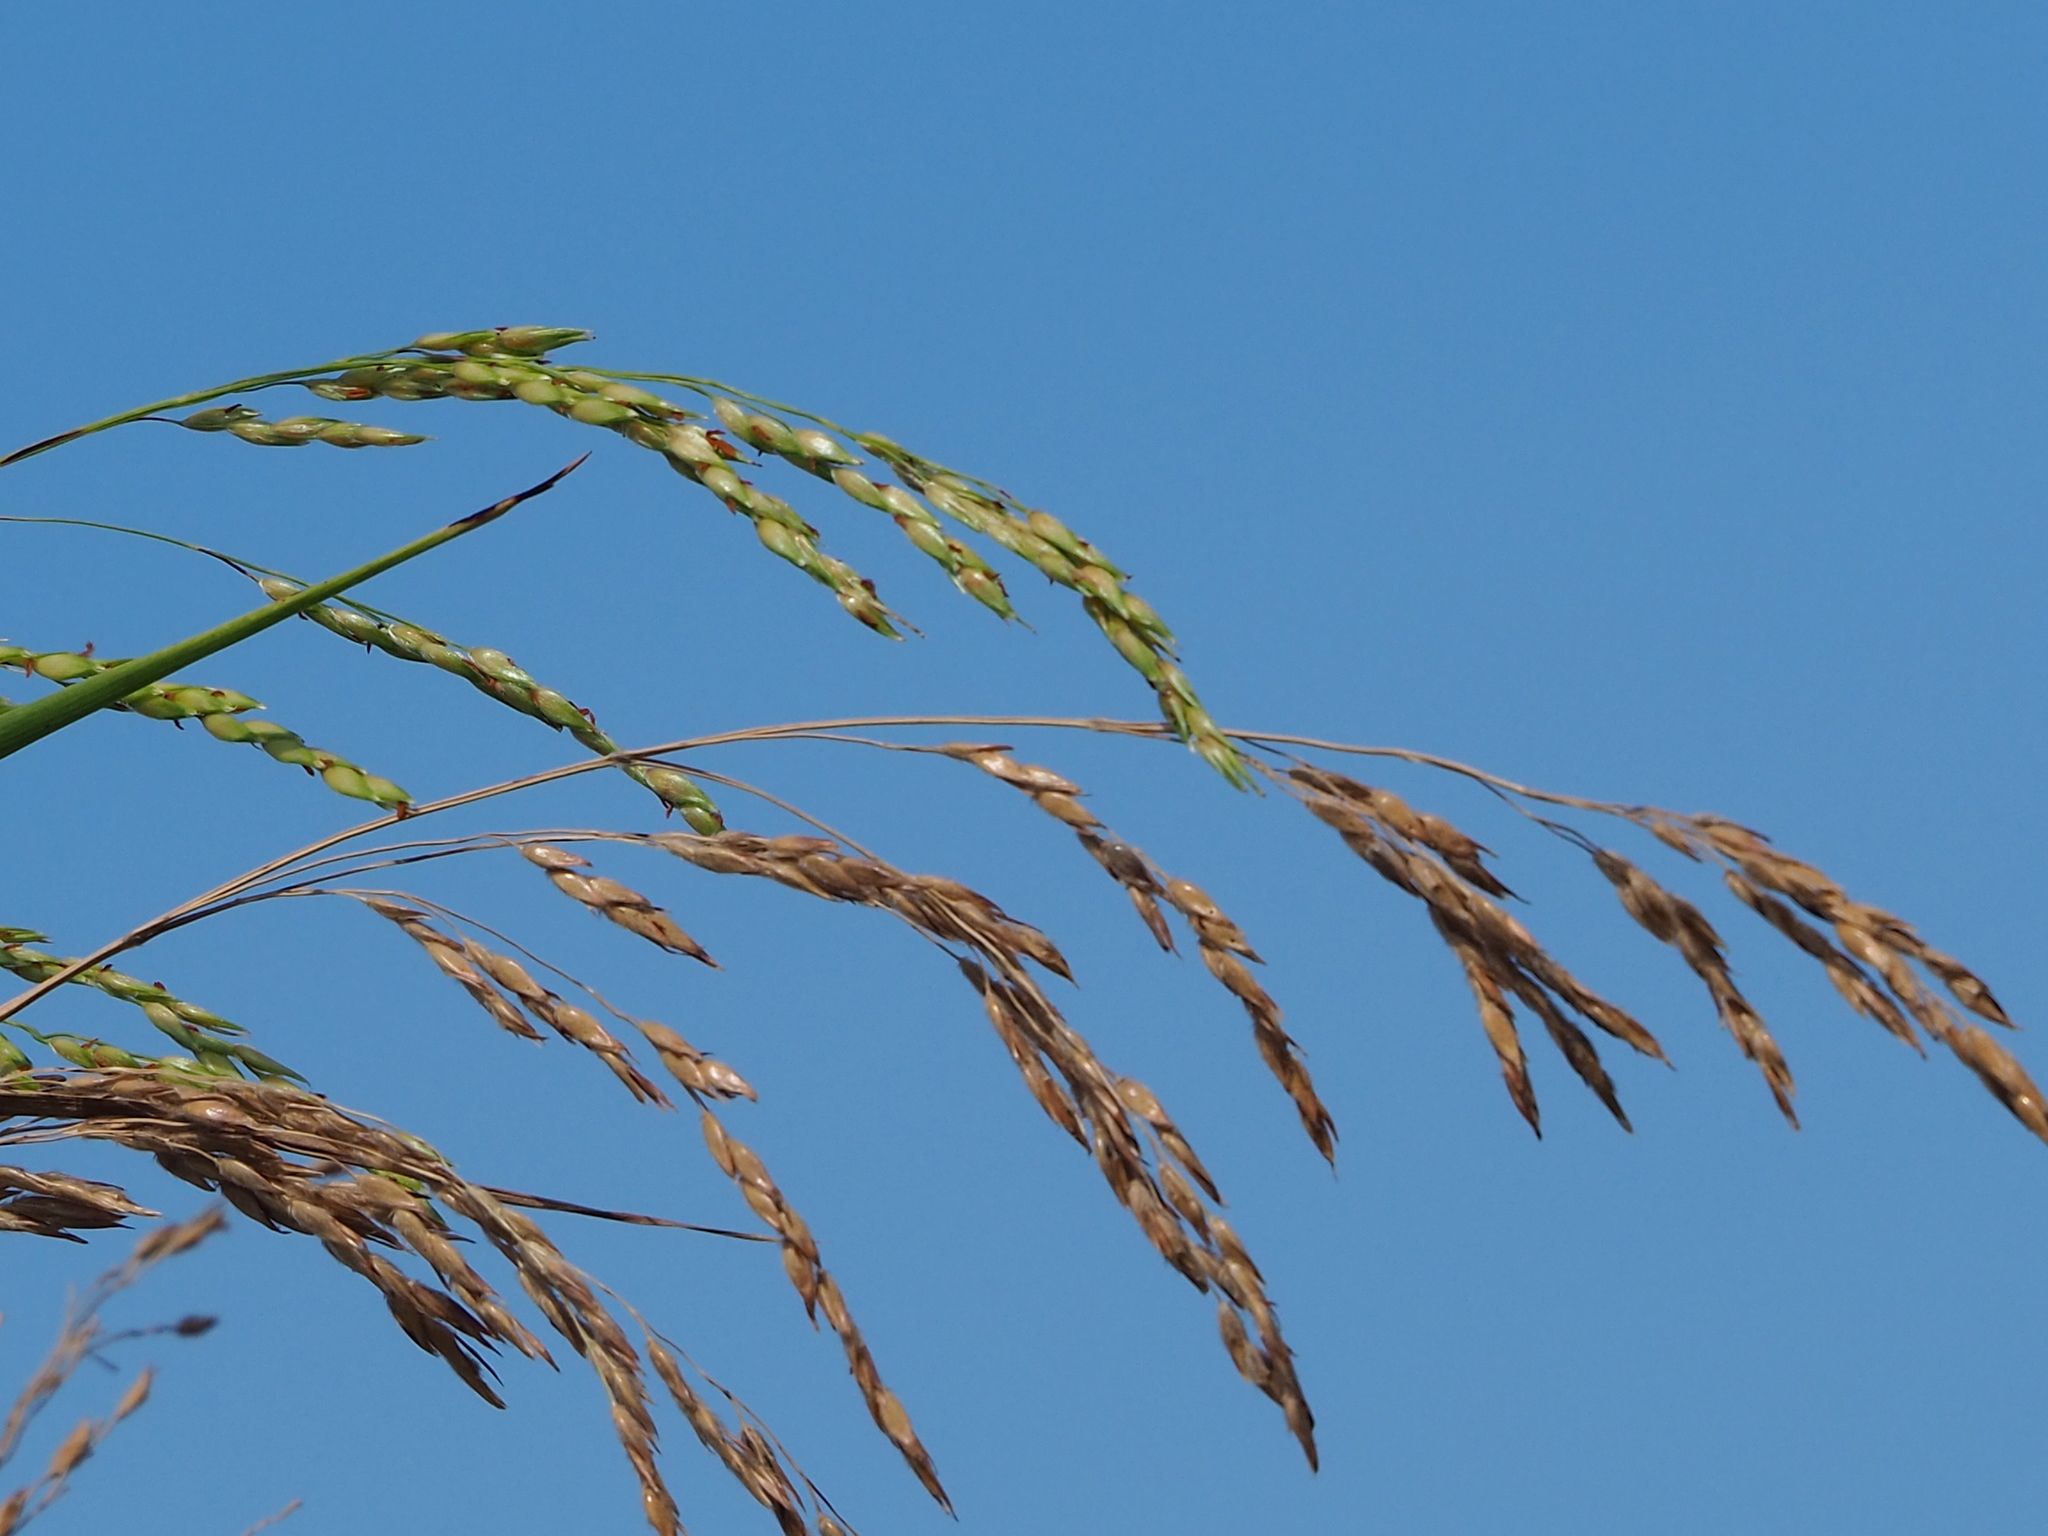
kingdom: Plantae
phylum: Tracheophyta
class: Liliopsida
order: Poales
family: Poaceae
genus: Sorghum
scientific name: Sorghum arundinaceum
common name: Sorghum
